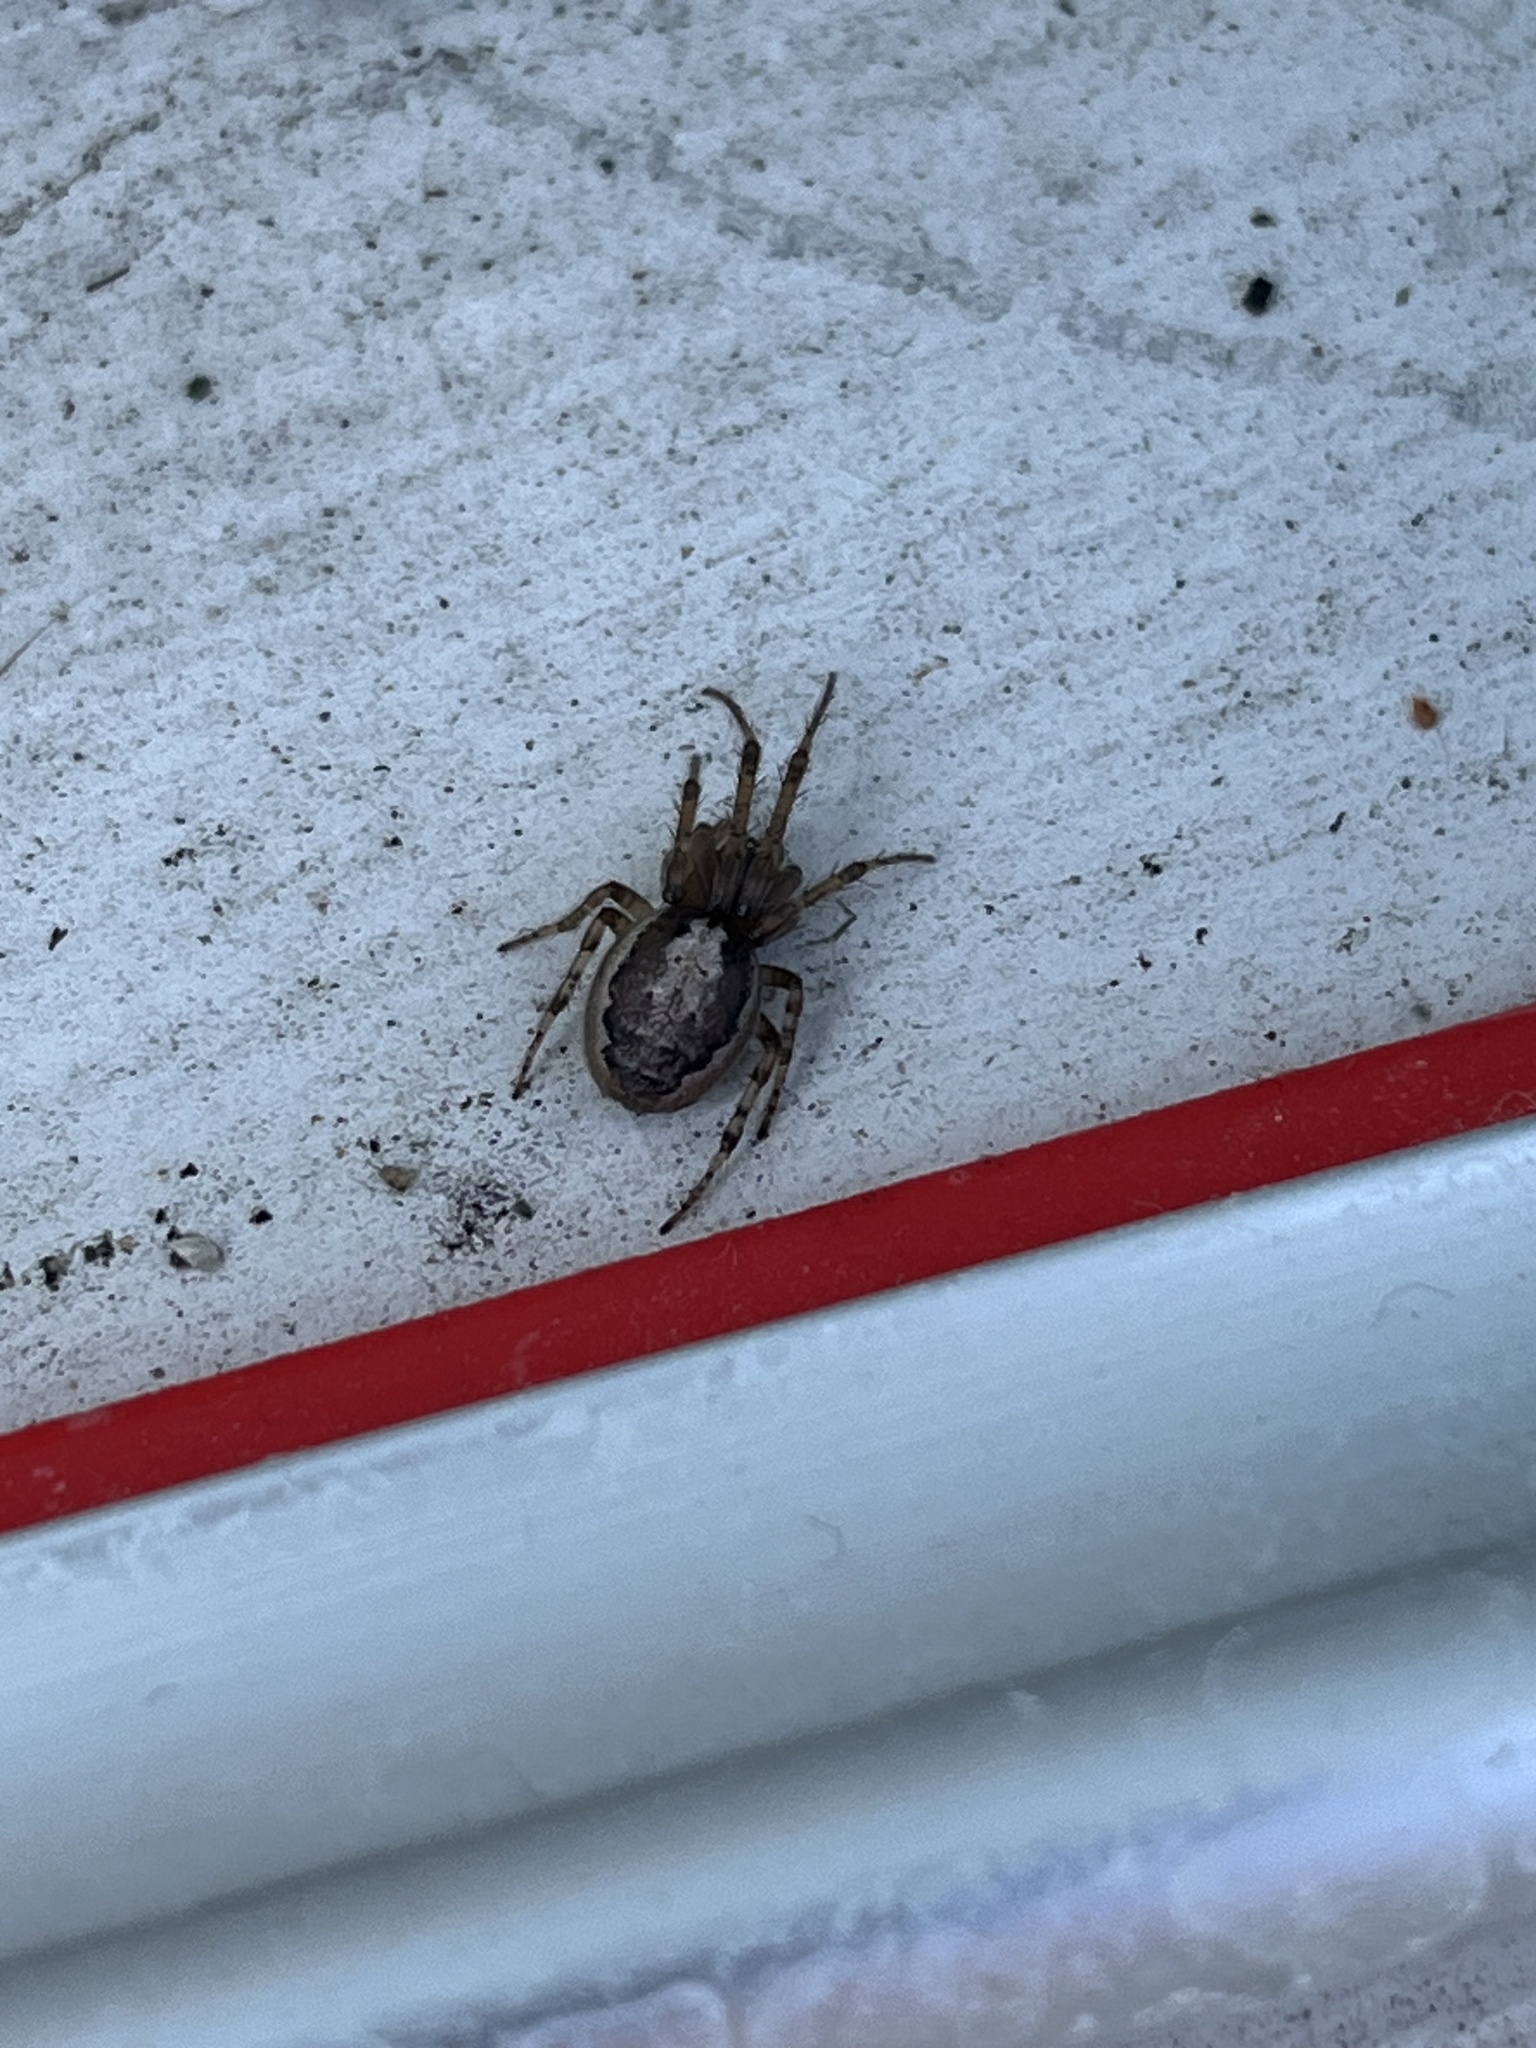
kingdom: Animalia
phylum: Arthropoda
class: Arachnida
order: Araneae
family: Araneidae
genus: Zygiella
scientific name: Zygiella x-notata
